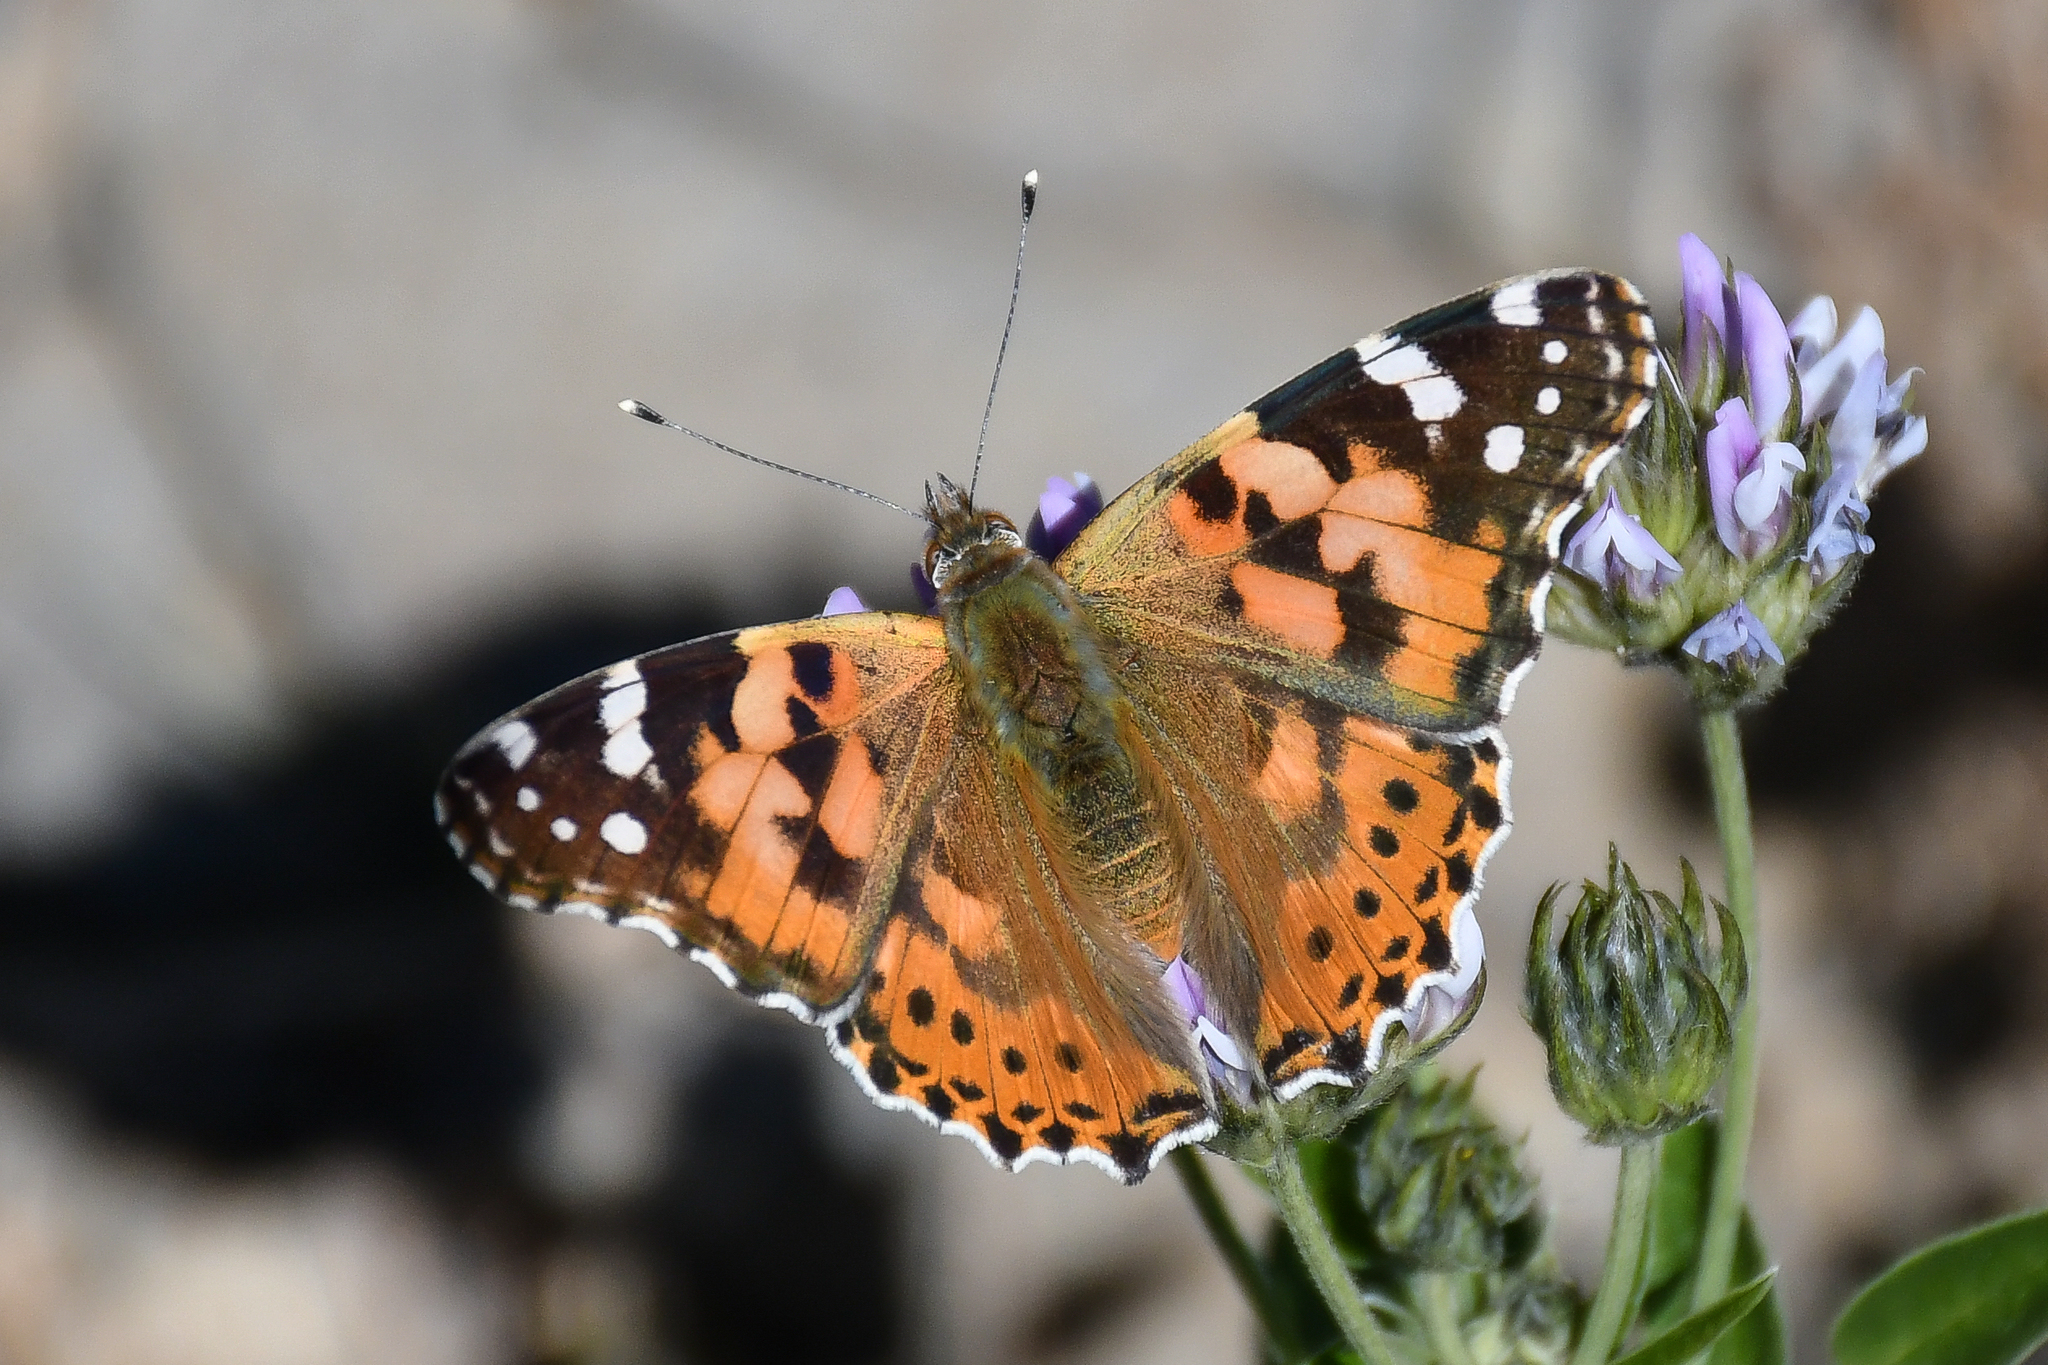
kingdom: Animalia
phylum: Arthropoda
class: Insecta
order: Lepidoptera
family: Nymphalidae
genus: Vanessa
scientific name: Vanessa cardui
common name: Painted lady
